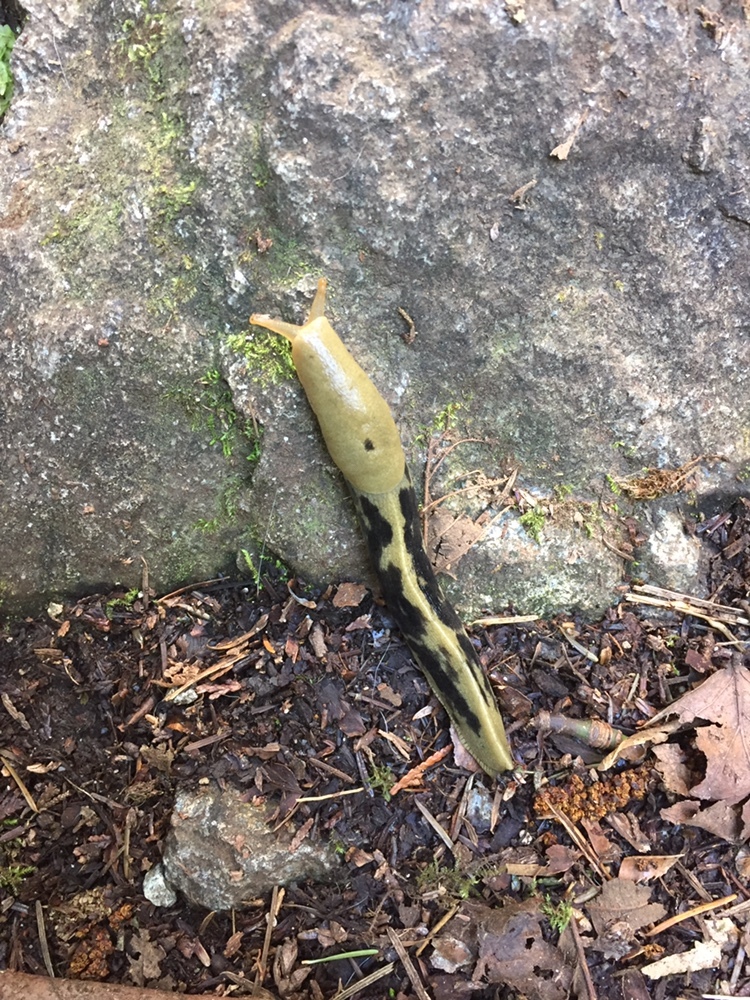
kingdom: Animalia
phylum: Mollusca
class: Gastropoda
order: Stylommatophora
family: Ariolimacidae
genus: Ariolimax
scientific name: Ariolimax columbianus
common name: Pacific banana slug
